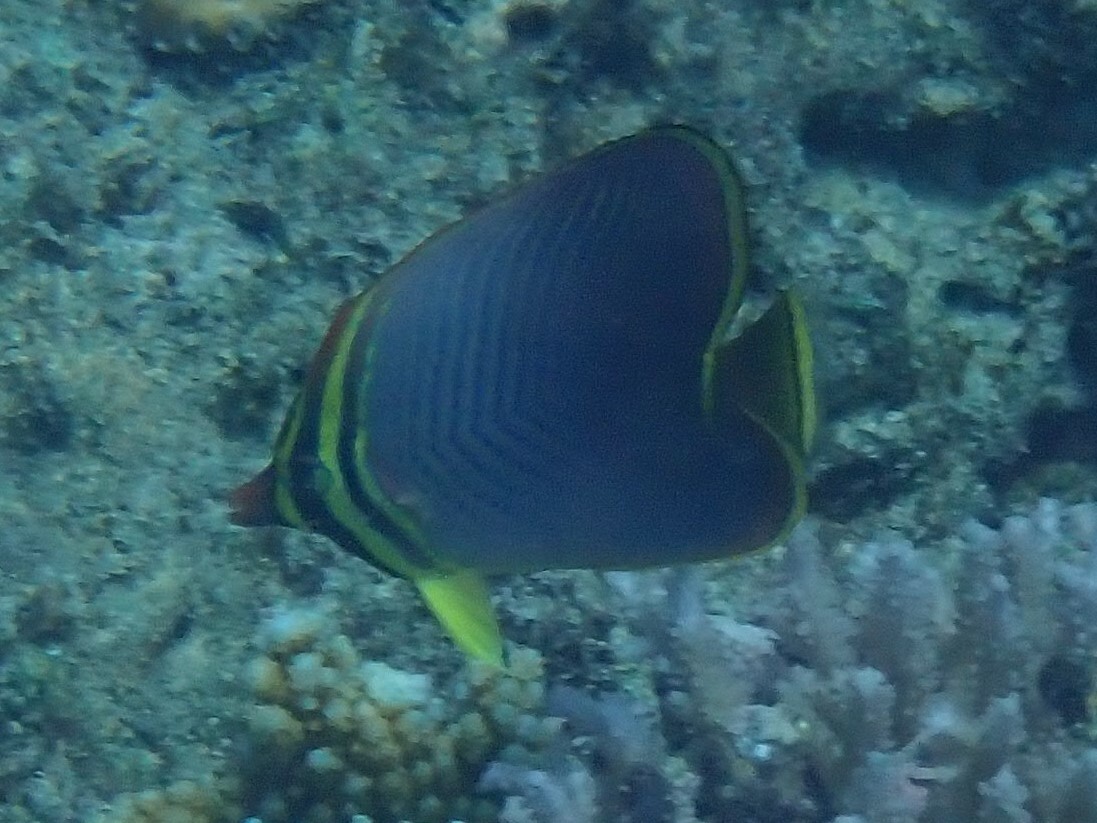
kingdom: Animalia
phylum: Chordata
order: Perciformes
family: Chaetodontidae
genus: Chaetodon
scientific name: Chaetodon baronessa
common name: Triangular butterflyfish
